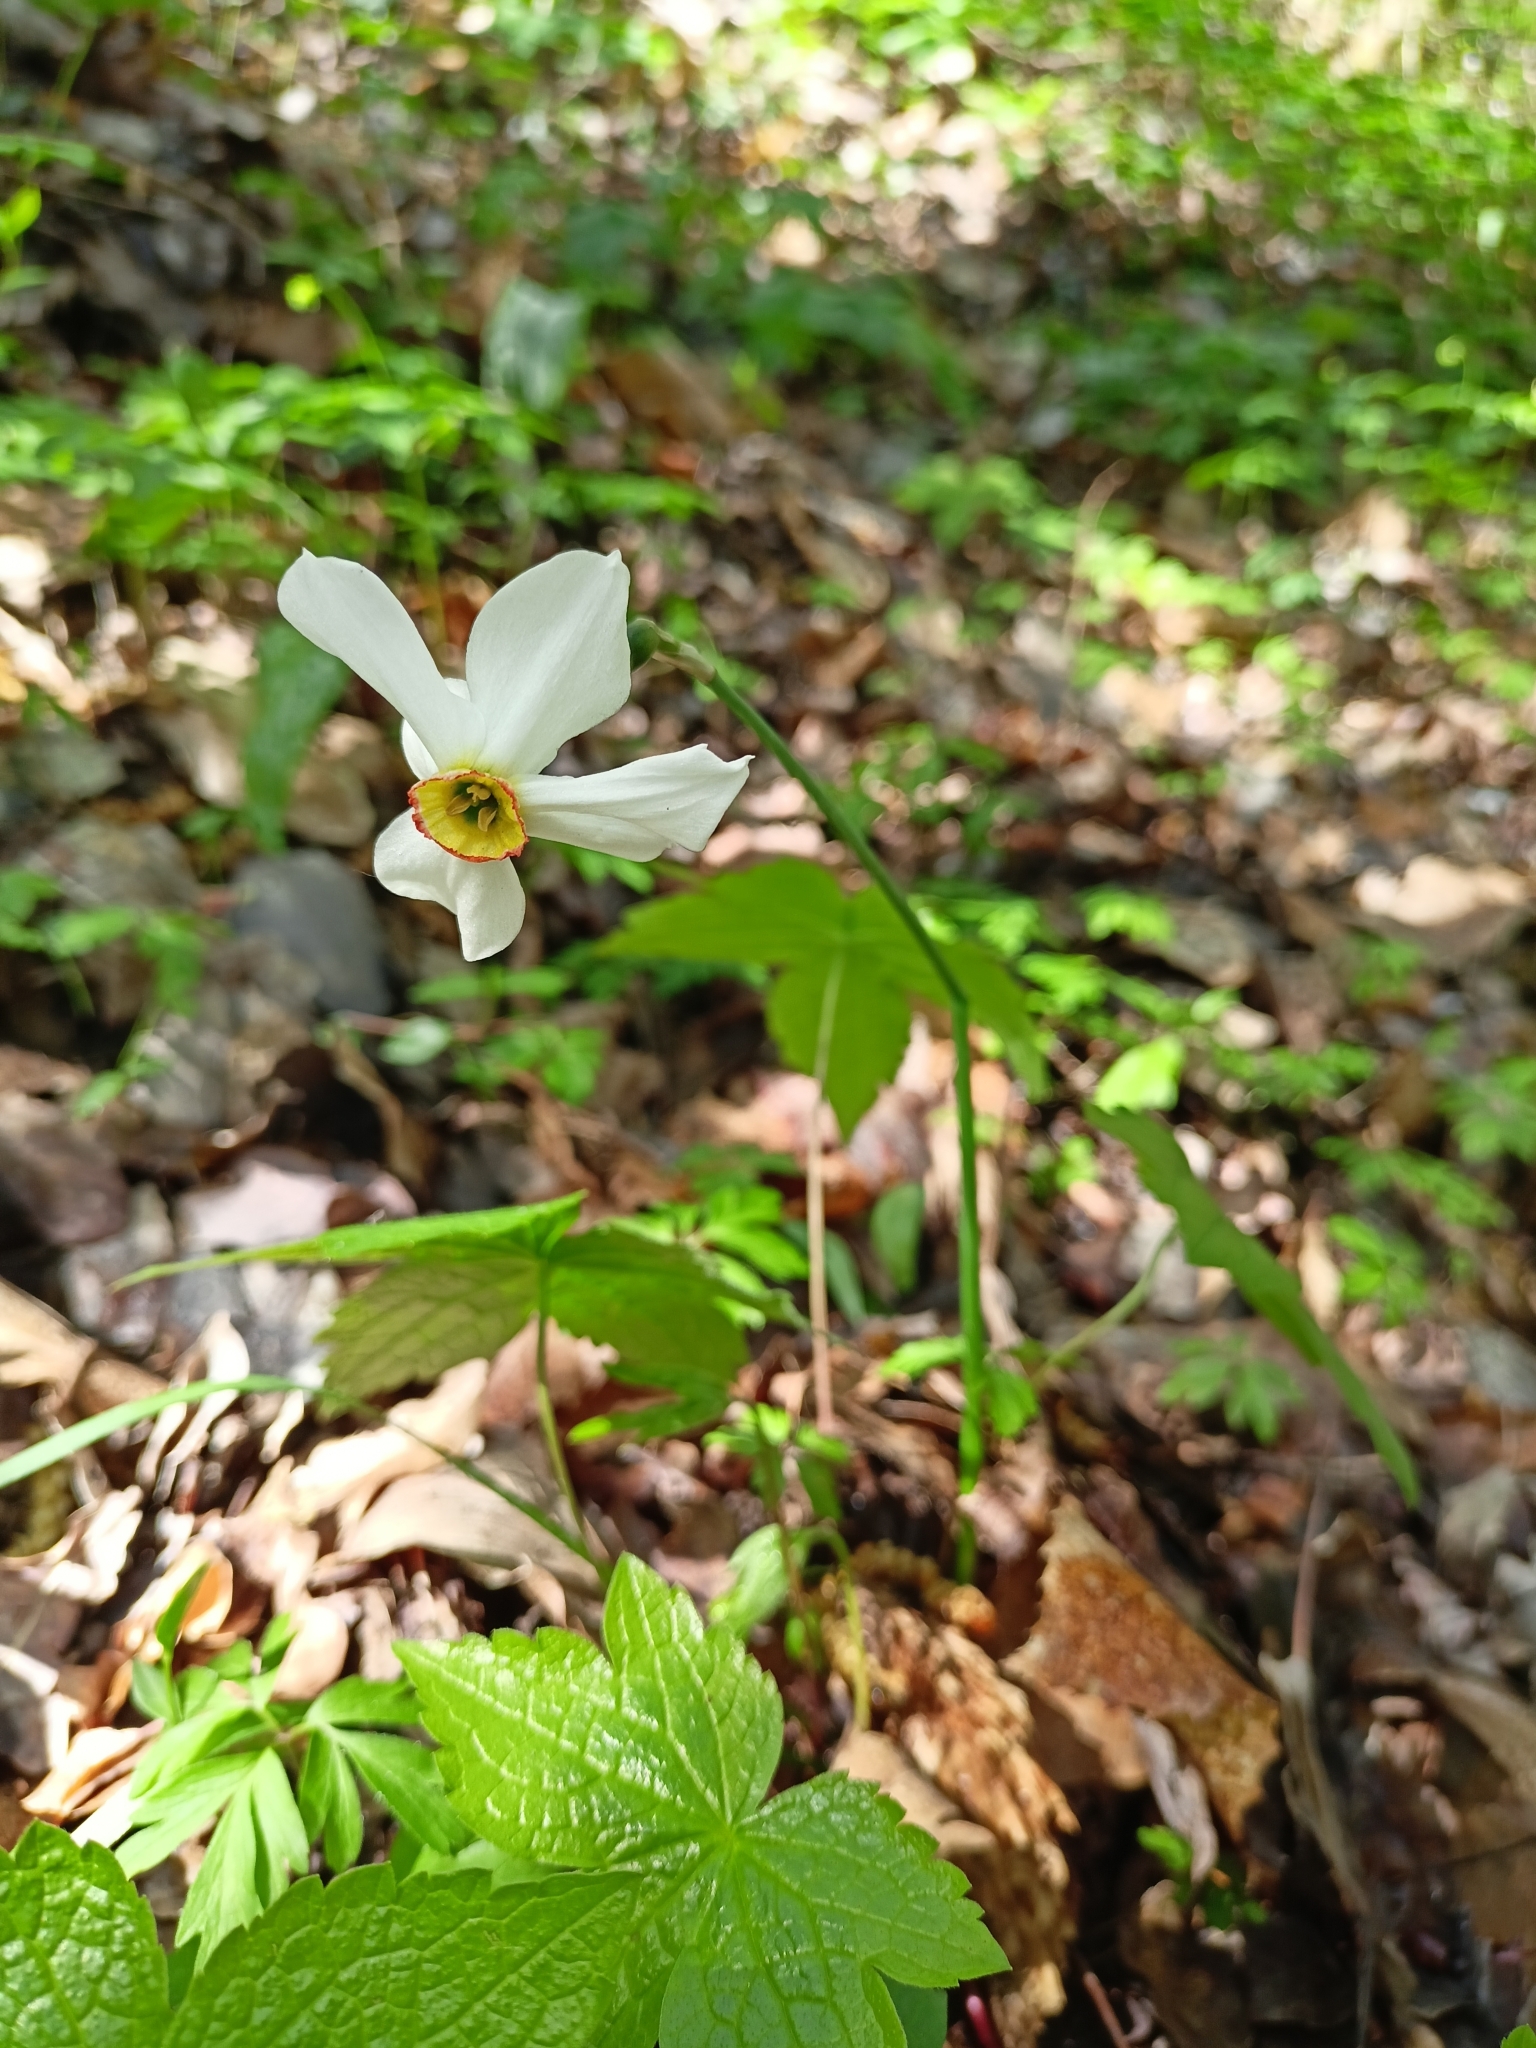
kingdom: Plantae
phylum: Tracheophyta
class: Liliopsida
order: Asparagales
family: Amaryllidaceae
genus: Narcissus
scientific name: Narcissus poeticus
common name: Pheasant's-eye daffodil
